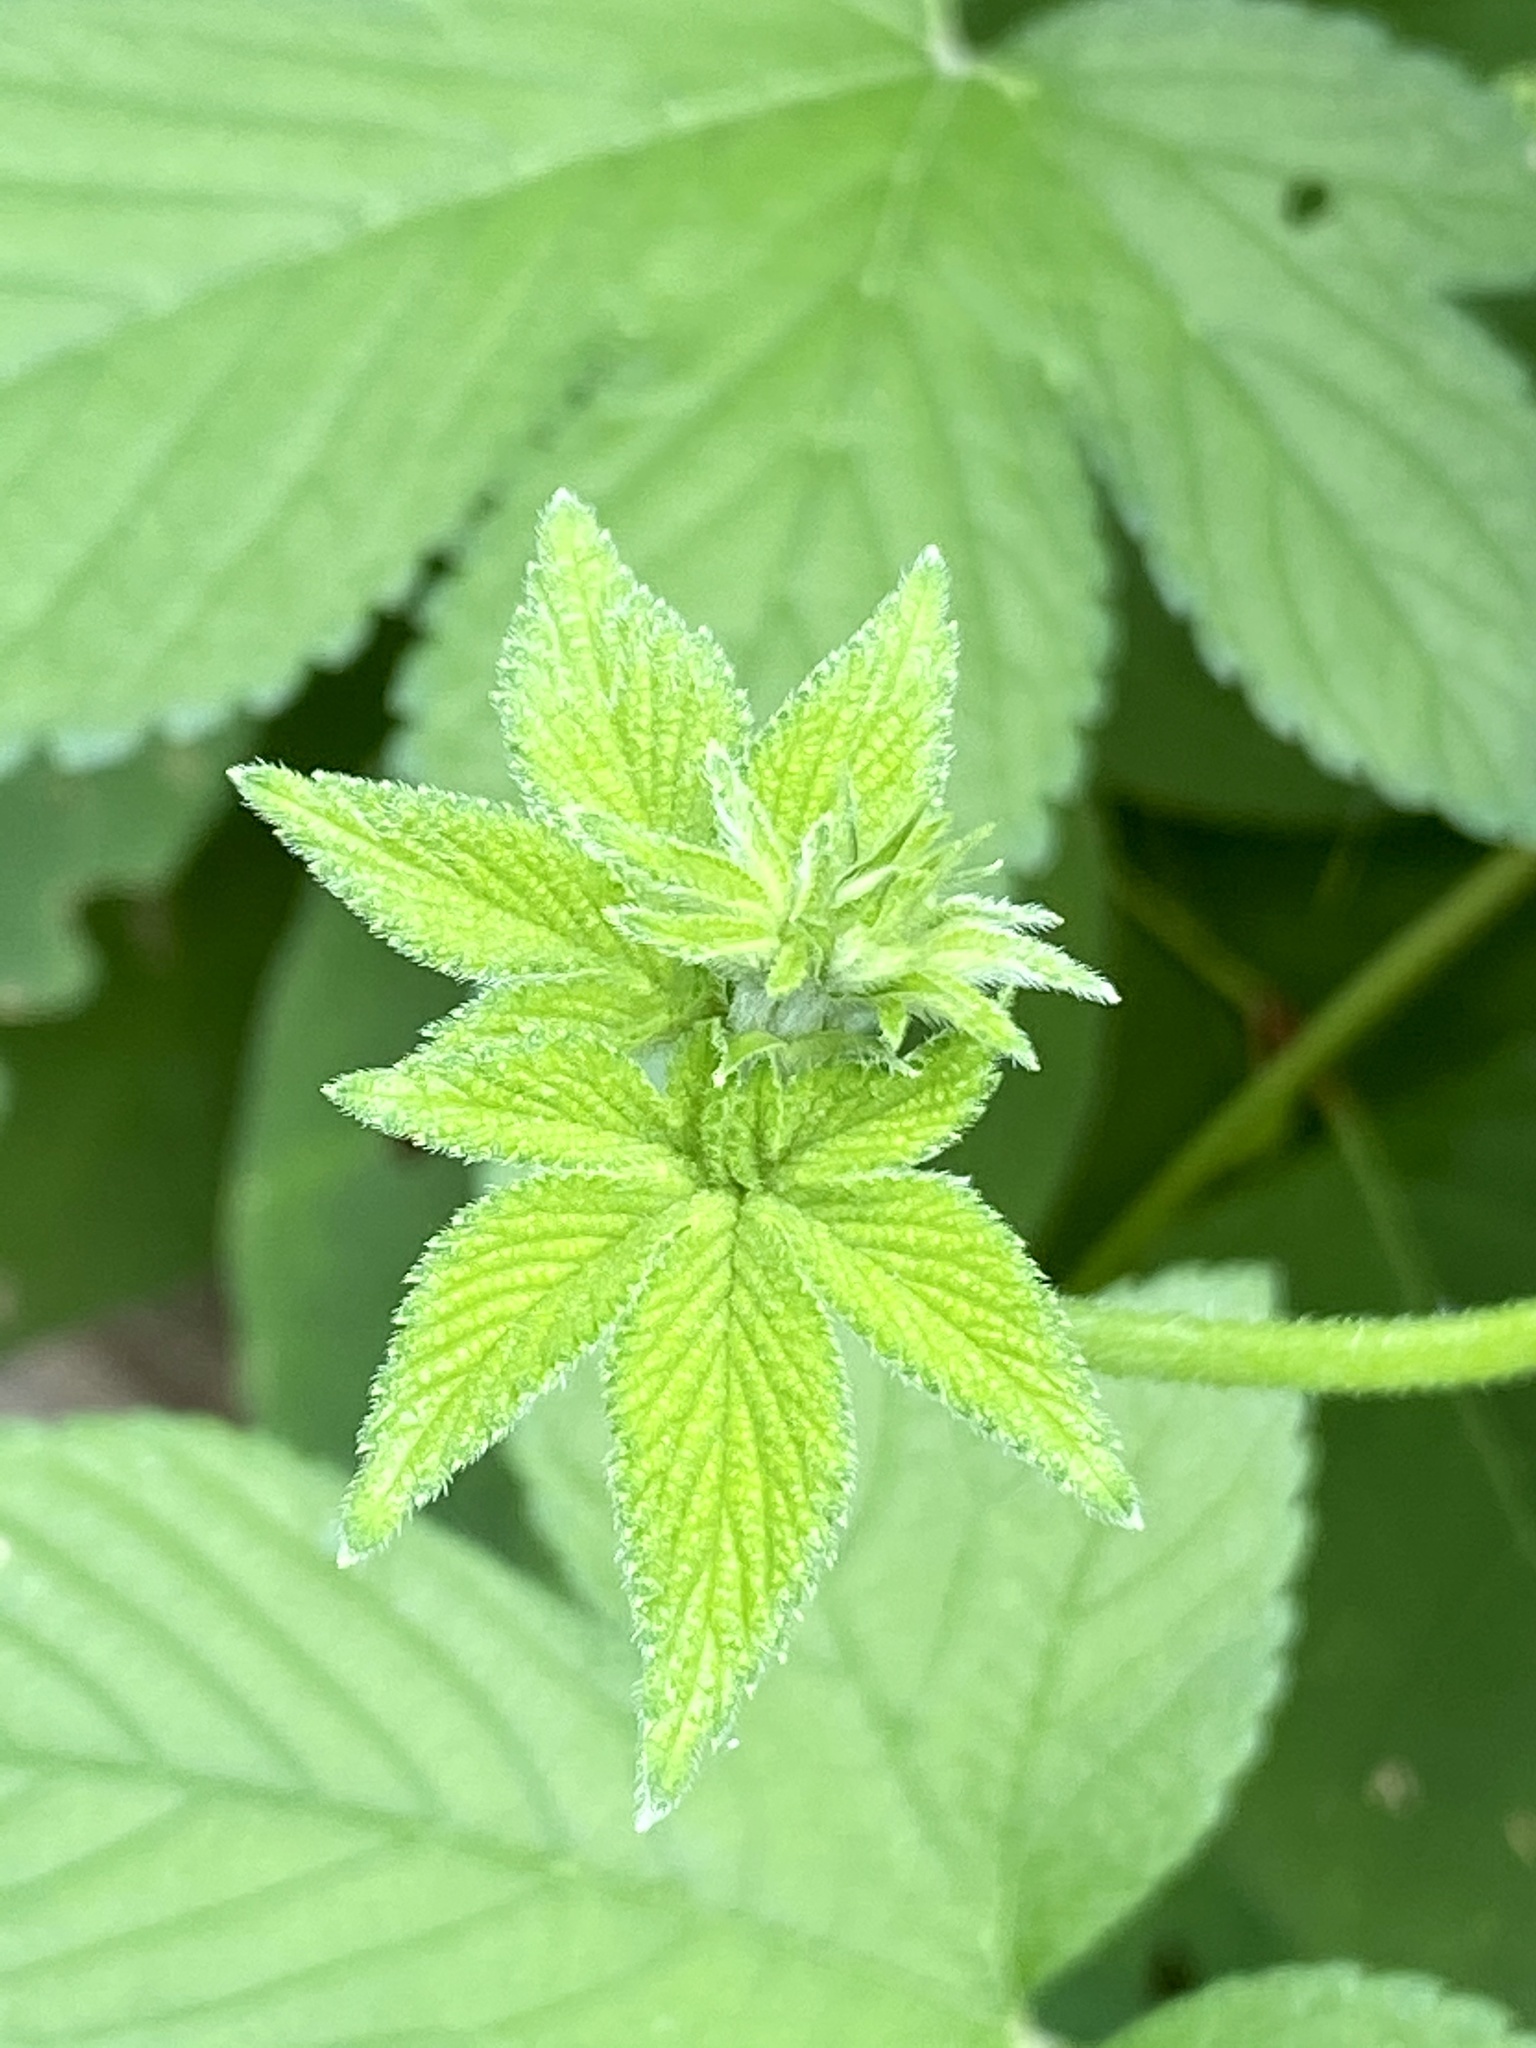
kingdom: Plantae
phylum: Tracheophyta
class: Magnoliopsida
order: Rosales
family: Cannabaceae
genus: Humulus
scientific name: Humulus scandens
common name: Japanese hop
